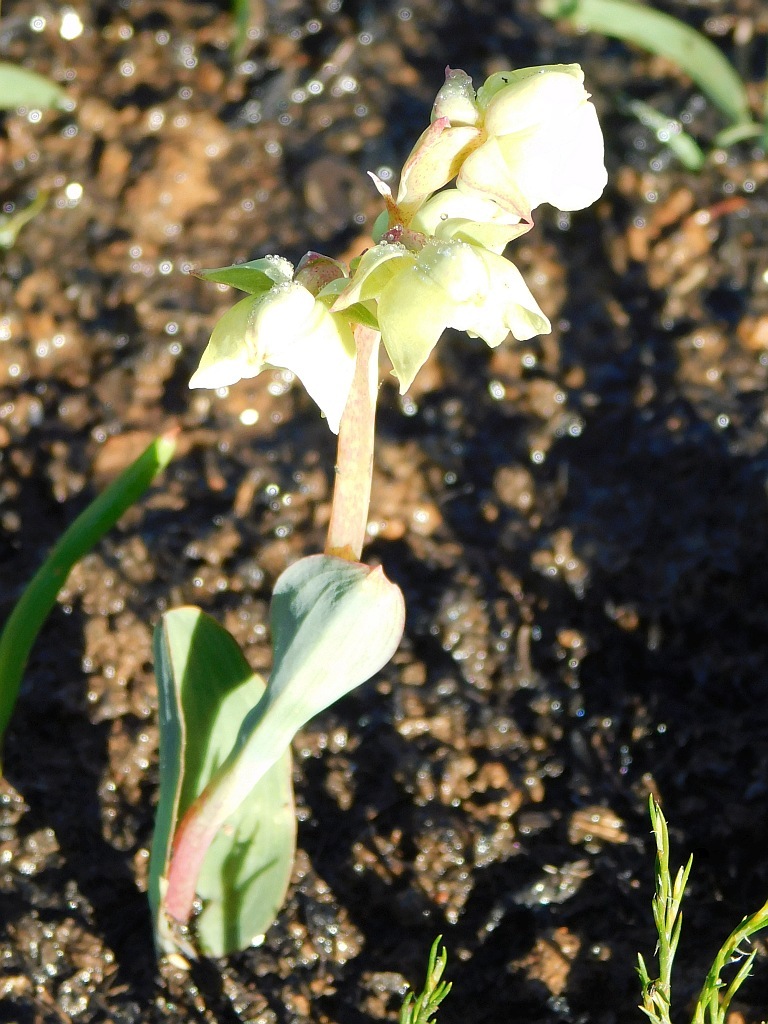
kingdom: Plantae
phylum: Tracheophyta
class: Liliopsida
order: Asparagales
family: Orchidaceae
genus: Pterygodium
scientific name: Pterygodium catholicum
